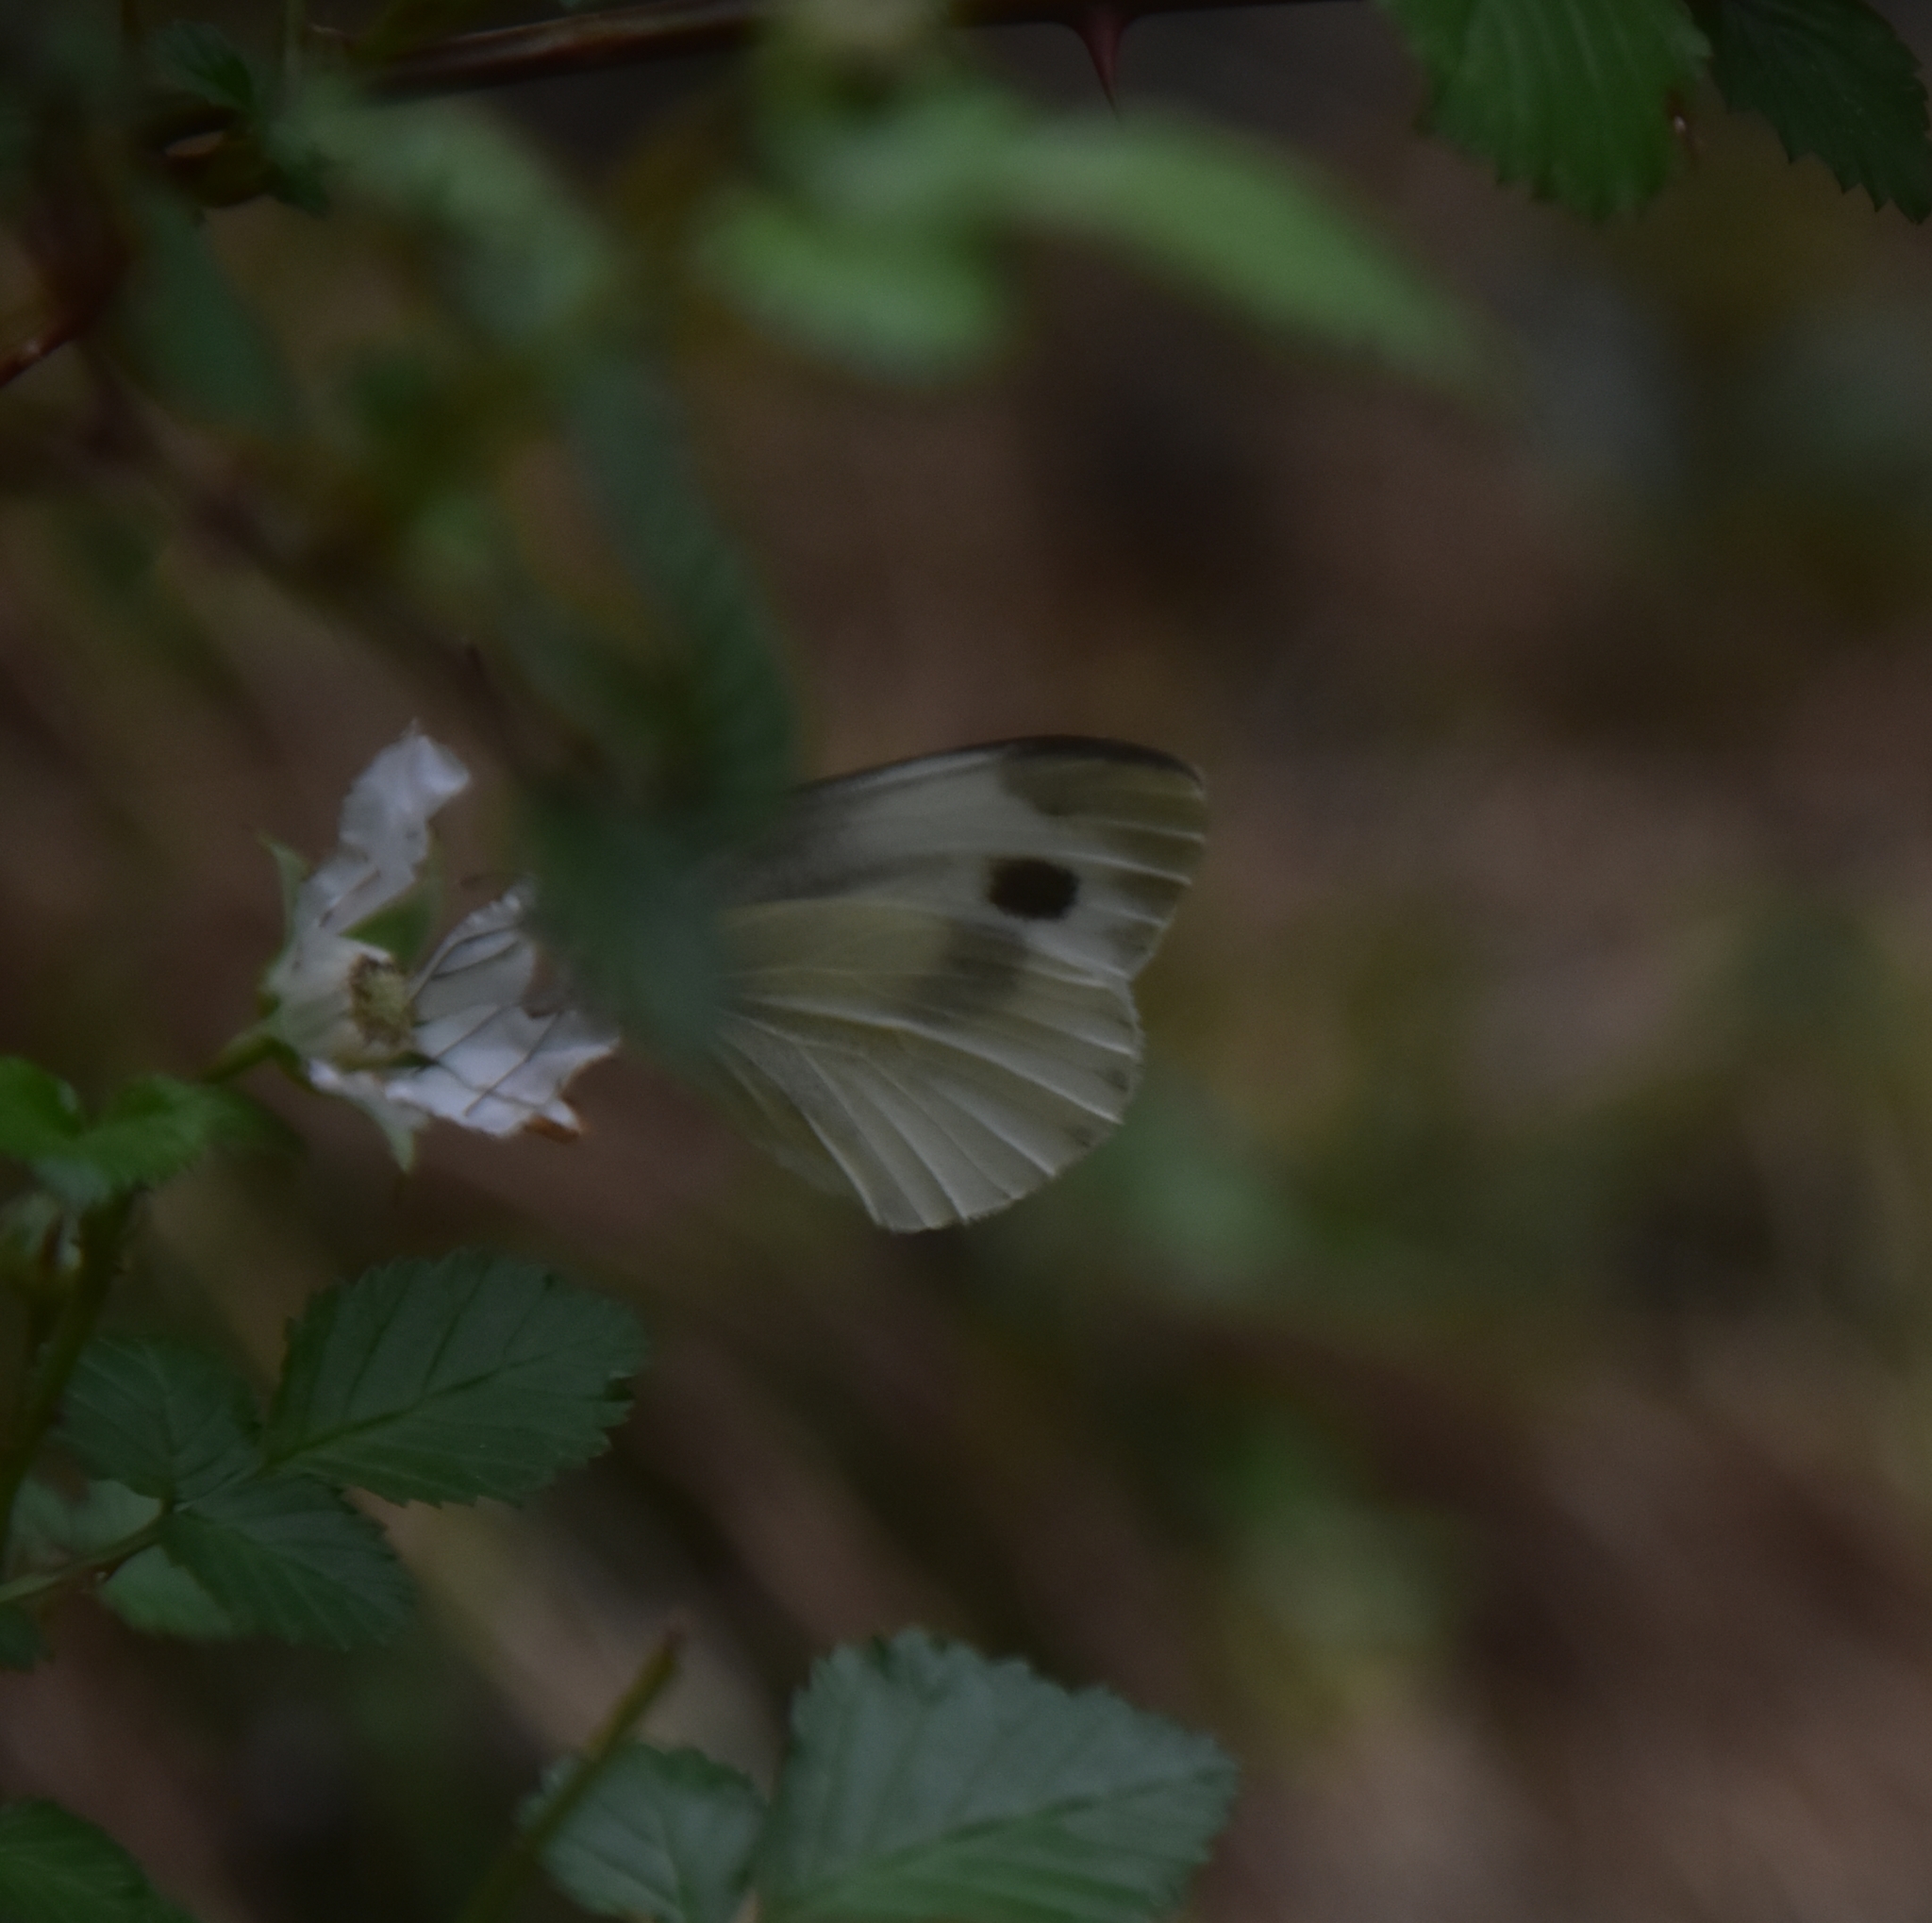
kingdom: Animalia
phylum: Arthropoda
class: Insecta
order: Lepidoptera
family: Pieridae
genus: Pieris
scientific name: Pieris canidia
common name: Indian cabbage white
